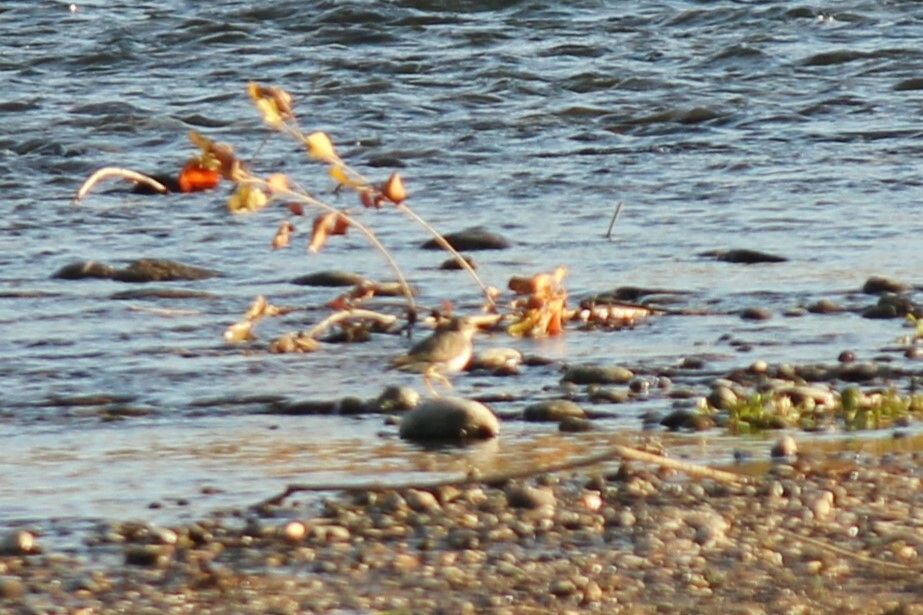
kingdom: Animalia
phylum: Chordata
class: Aves
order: Charadriiformes
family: Scolopacidae
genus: Actitis
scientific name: Actitis macularius
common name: Spotted sandpiper
